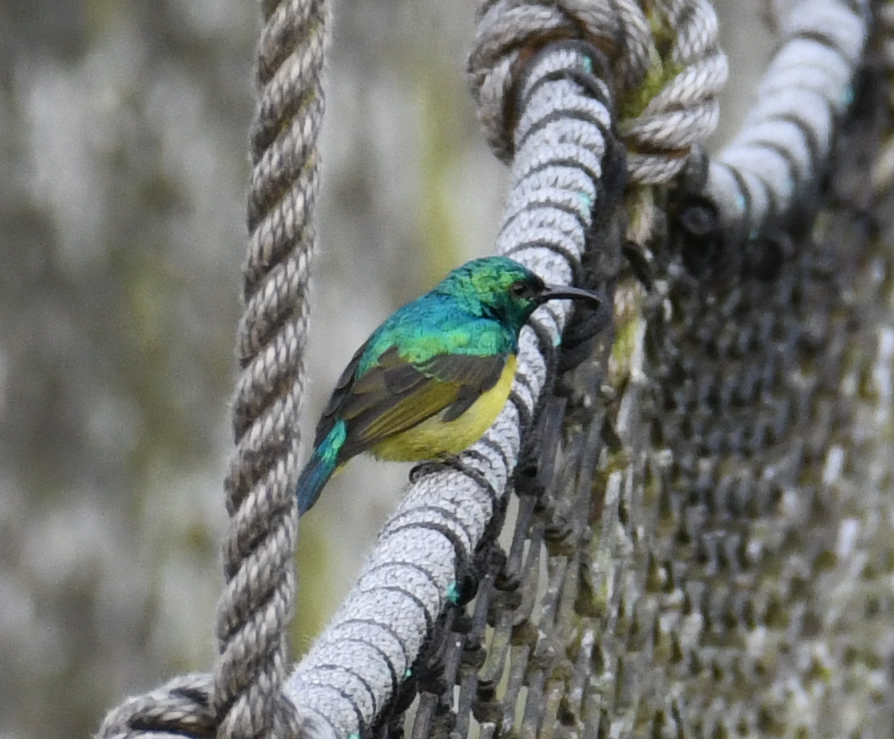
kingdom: Animalia
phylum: Chordata
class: Aves
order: Passeriformes
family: Nectariniidae
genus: Hedydipna
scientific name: Hedydipna collaris
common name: Collared sunbird
